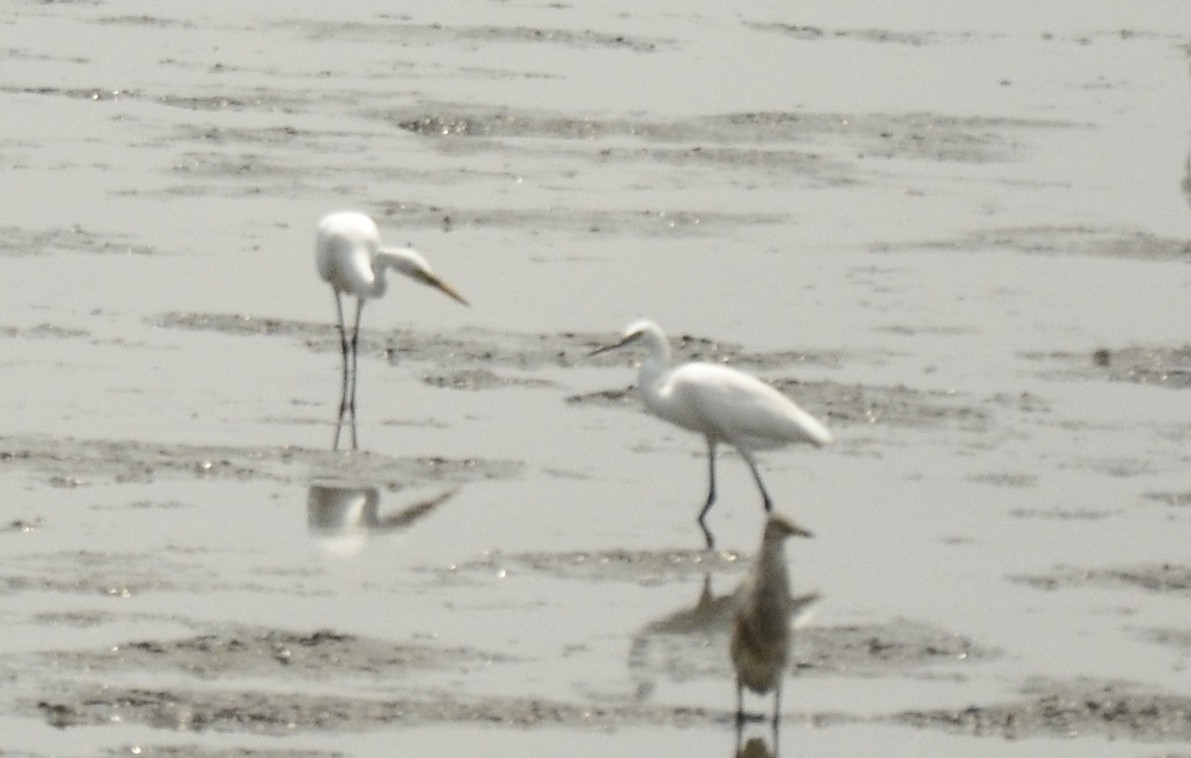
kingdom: Animalia
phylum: Chordata
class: Aves
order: Pelecaniformes
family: Ardeidae
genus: Egretta
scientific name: Egretta garzetta
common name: Little egret
